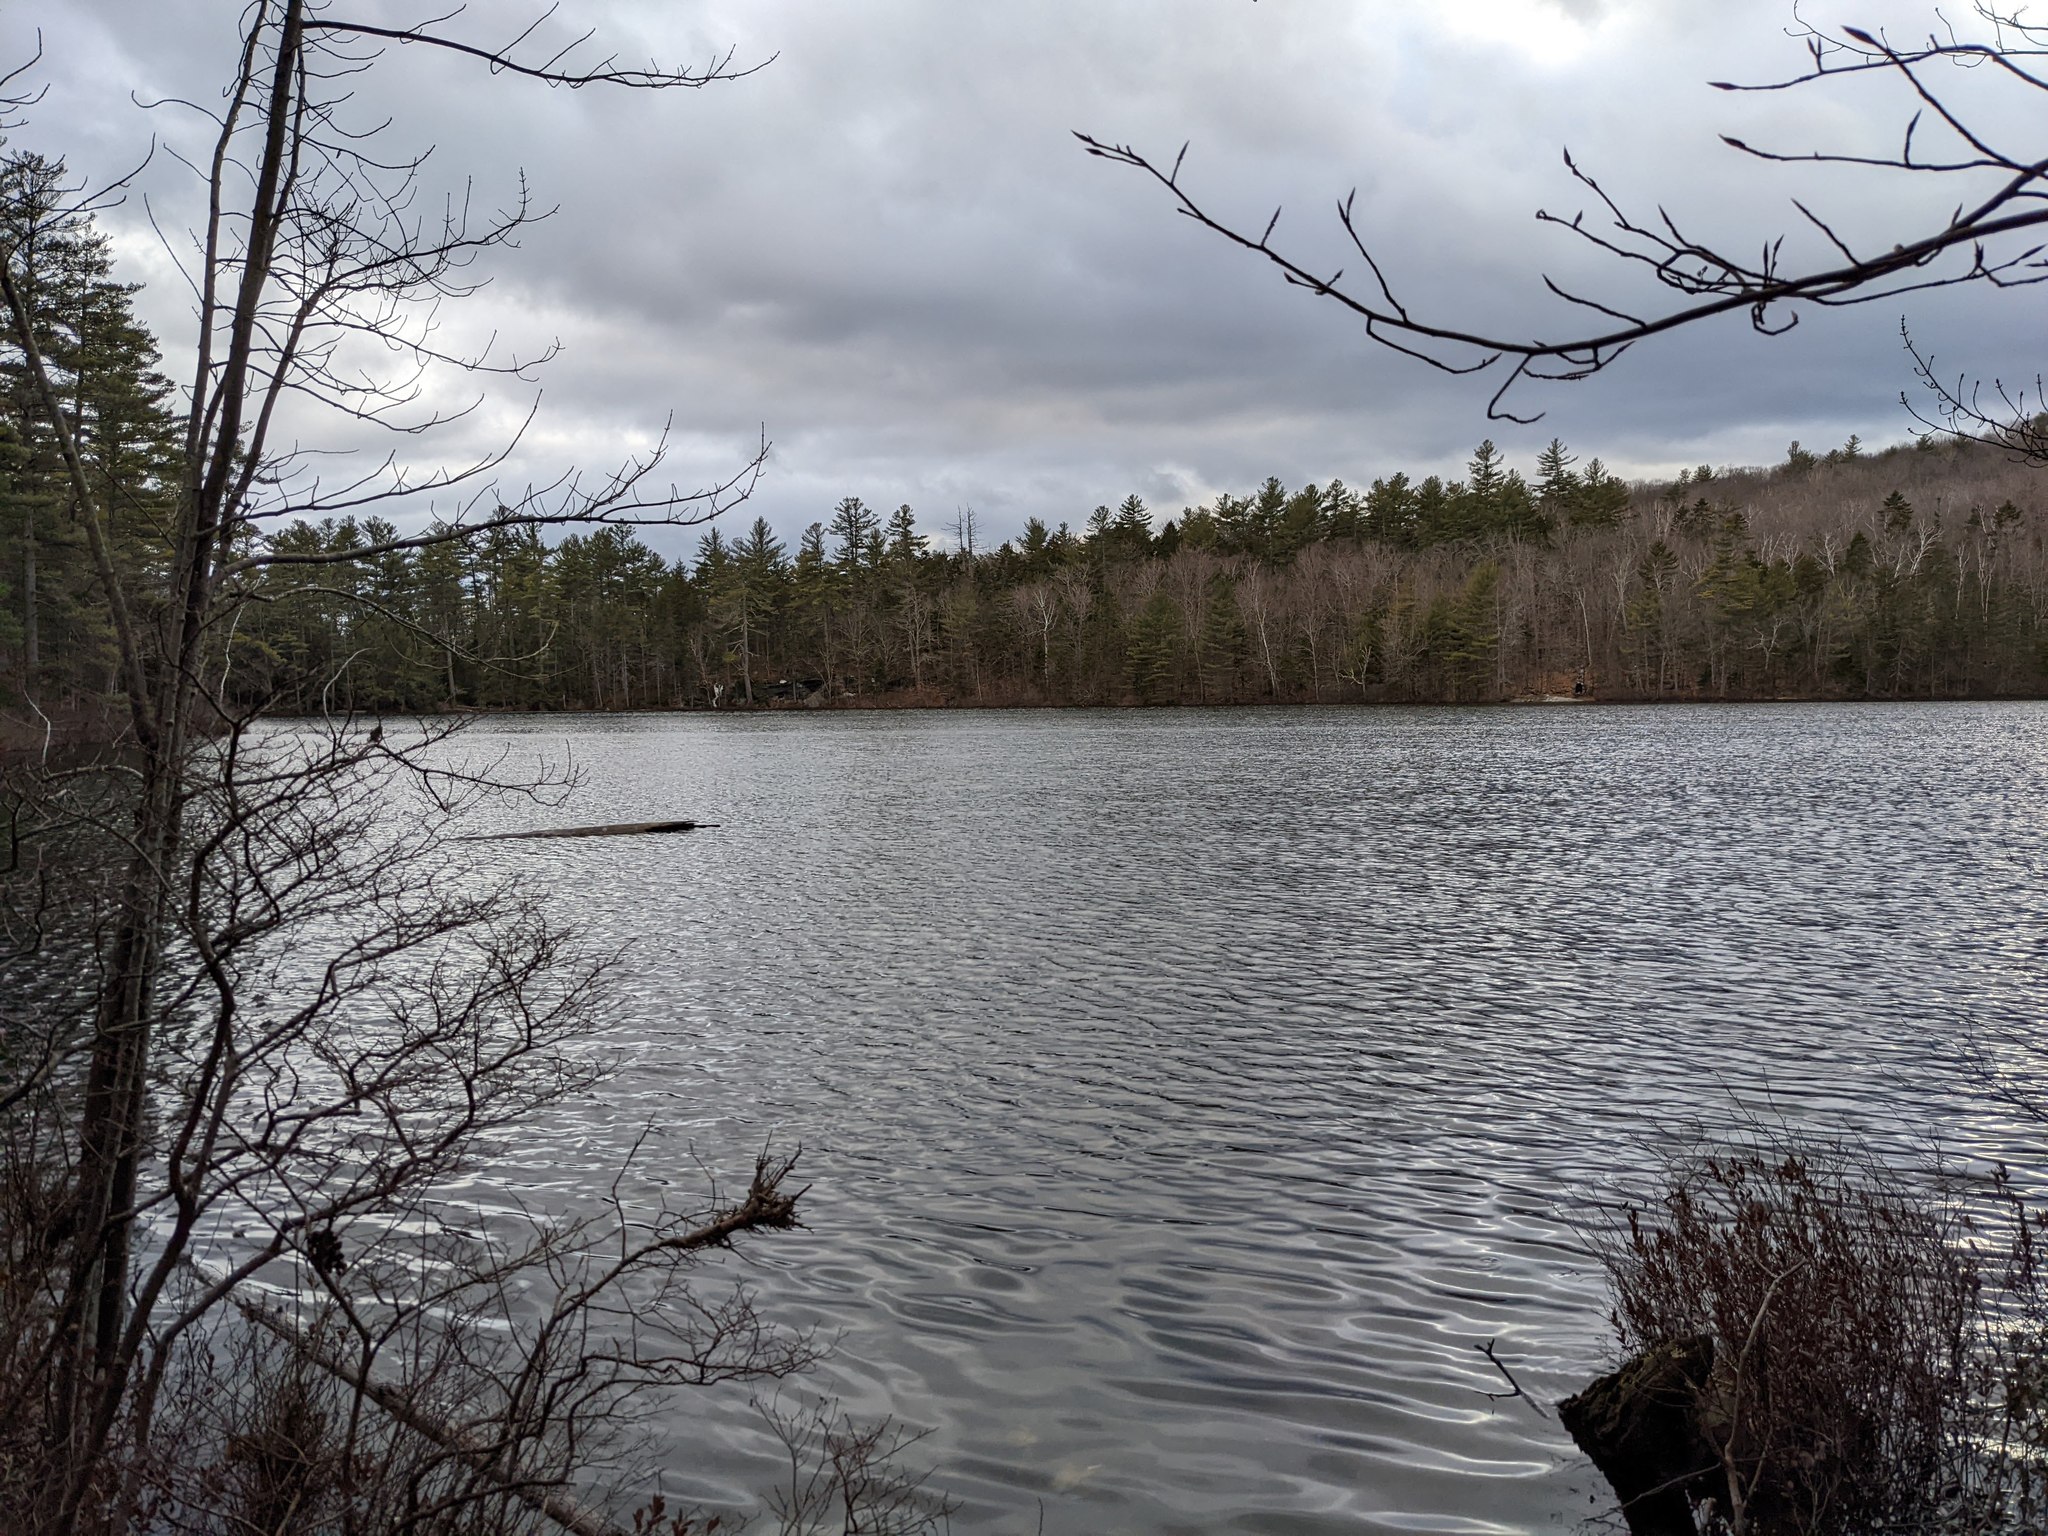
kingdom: Plantae
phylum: Tracheophyta
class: Pinopsida
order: Pinales
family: Pinaceae
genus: Pinus
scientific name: Pinus strobus
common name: Weymouth pine
